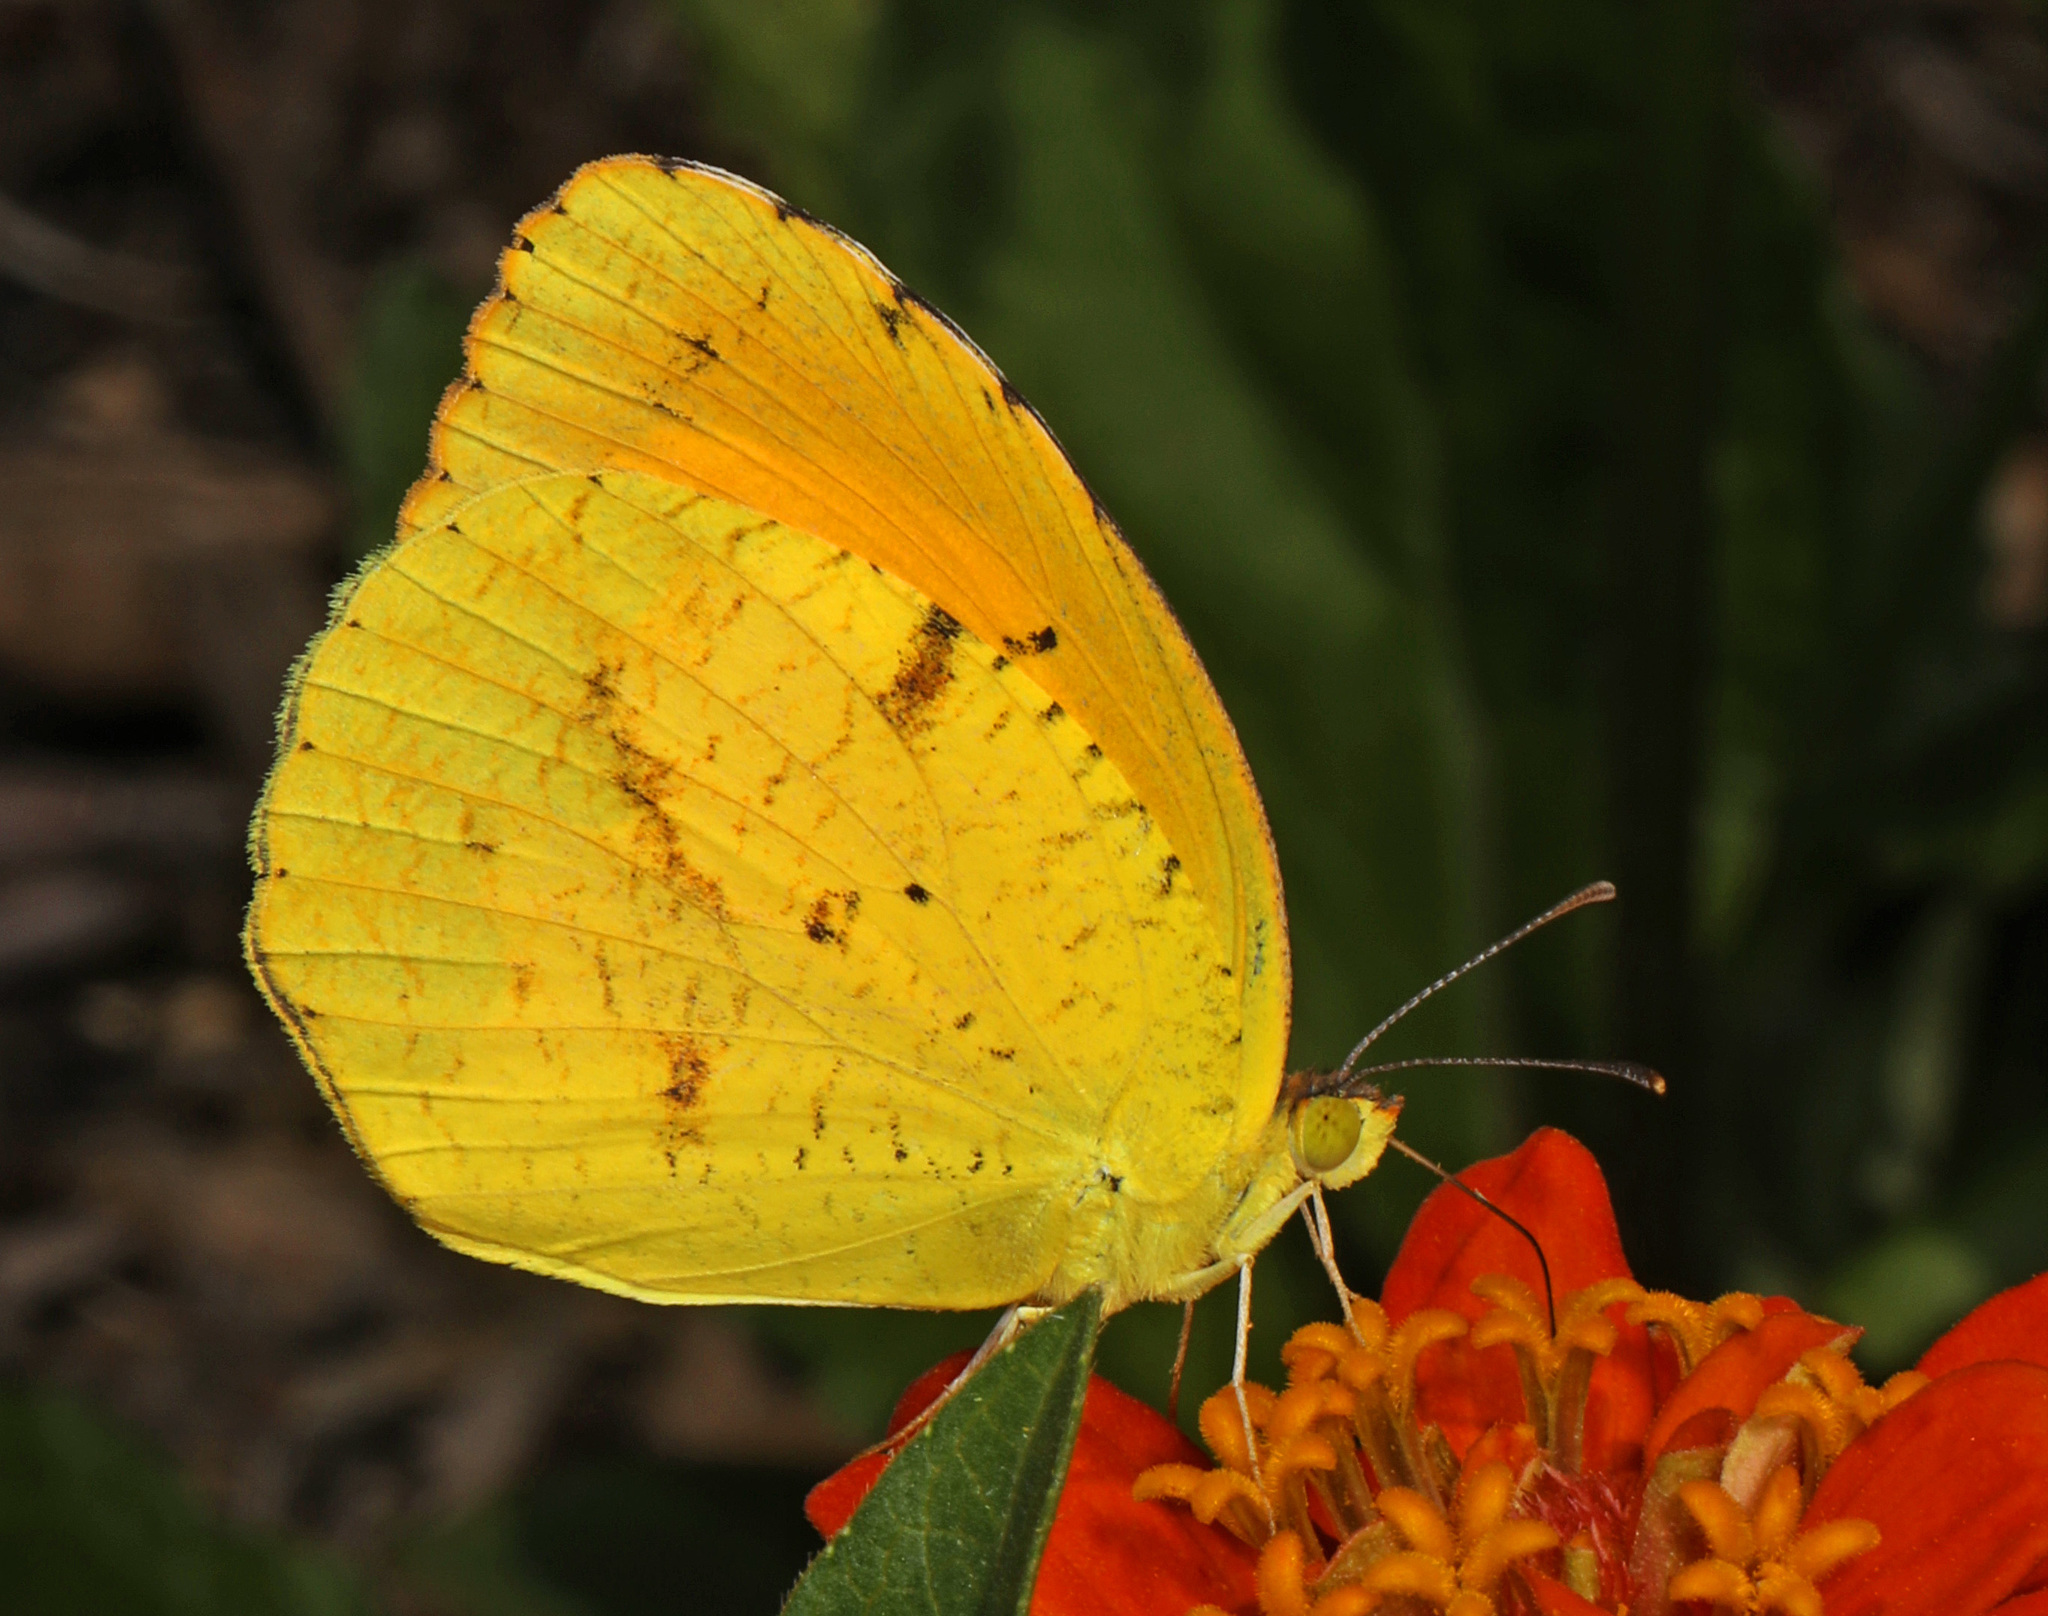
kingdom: Animalia
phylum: Arthropoda
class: Insecta
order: Lepidoptera
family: Pieridae
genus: Abaeis
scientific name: Abaeis nicippe
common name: Sleepy orange
